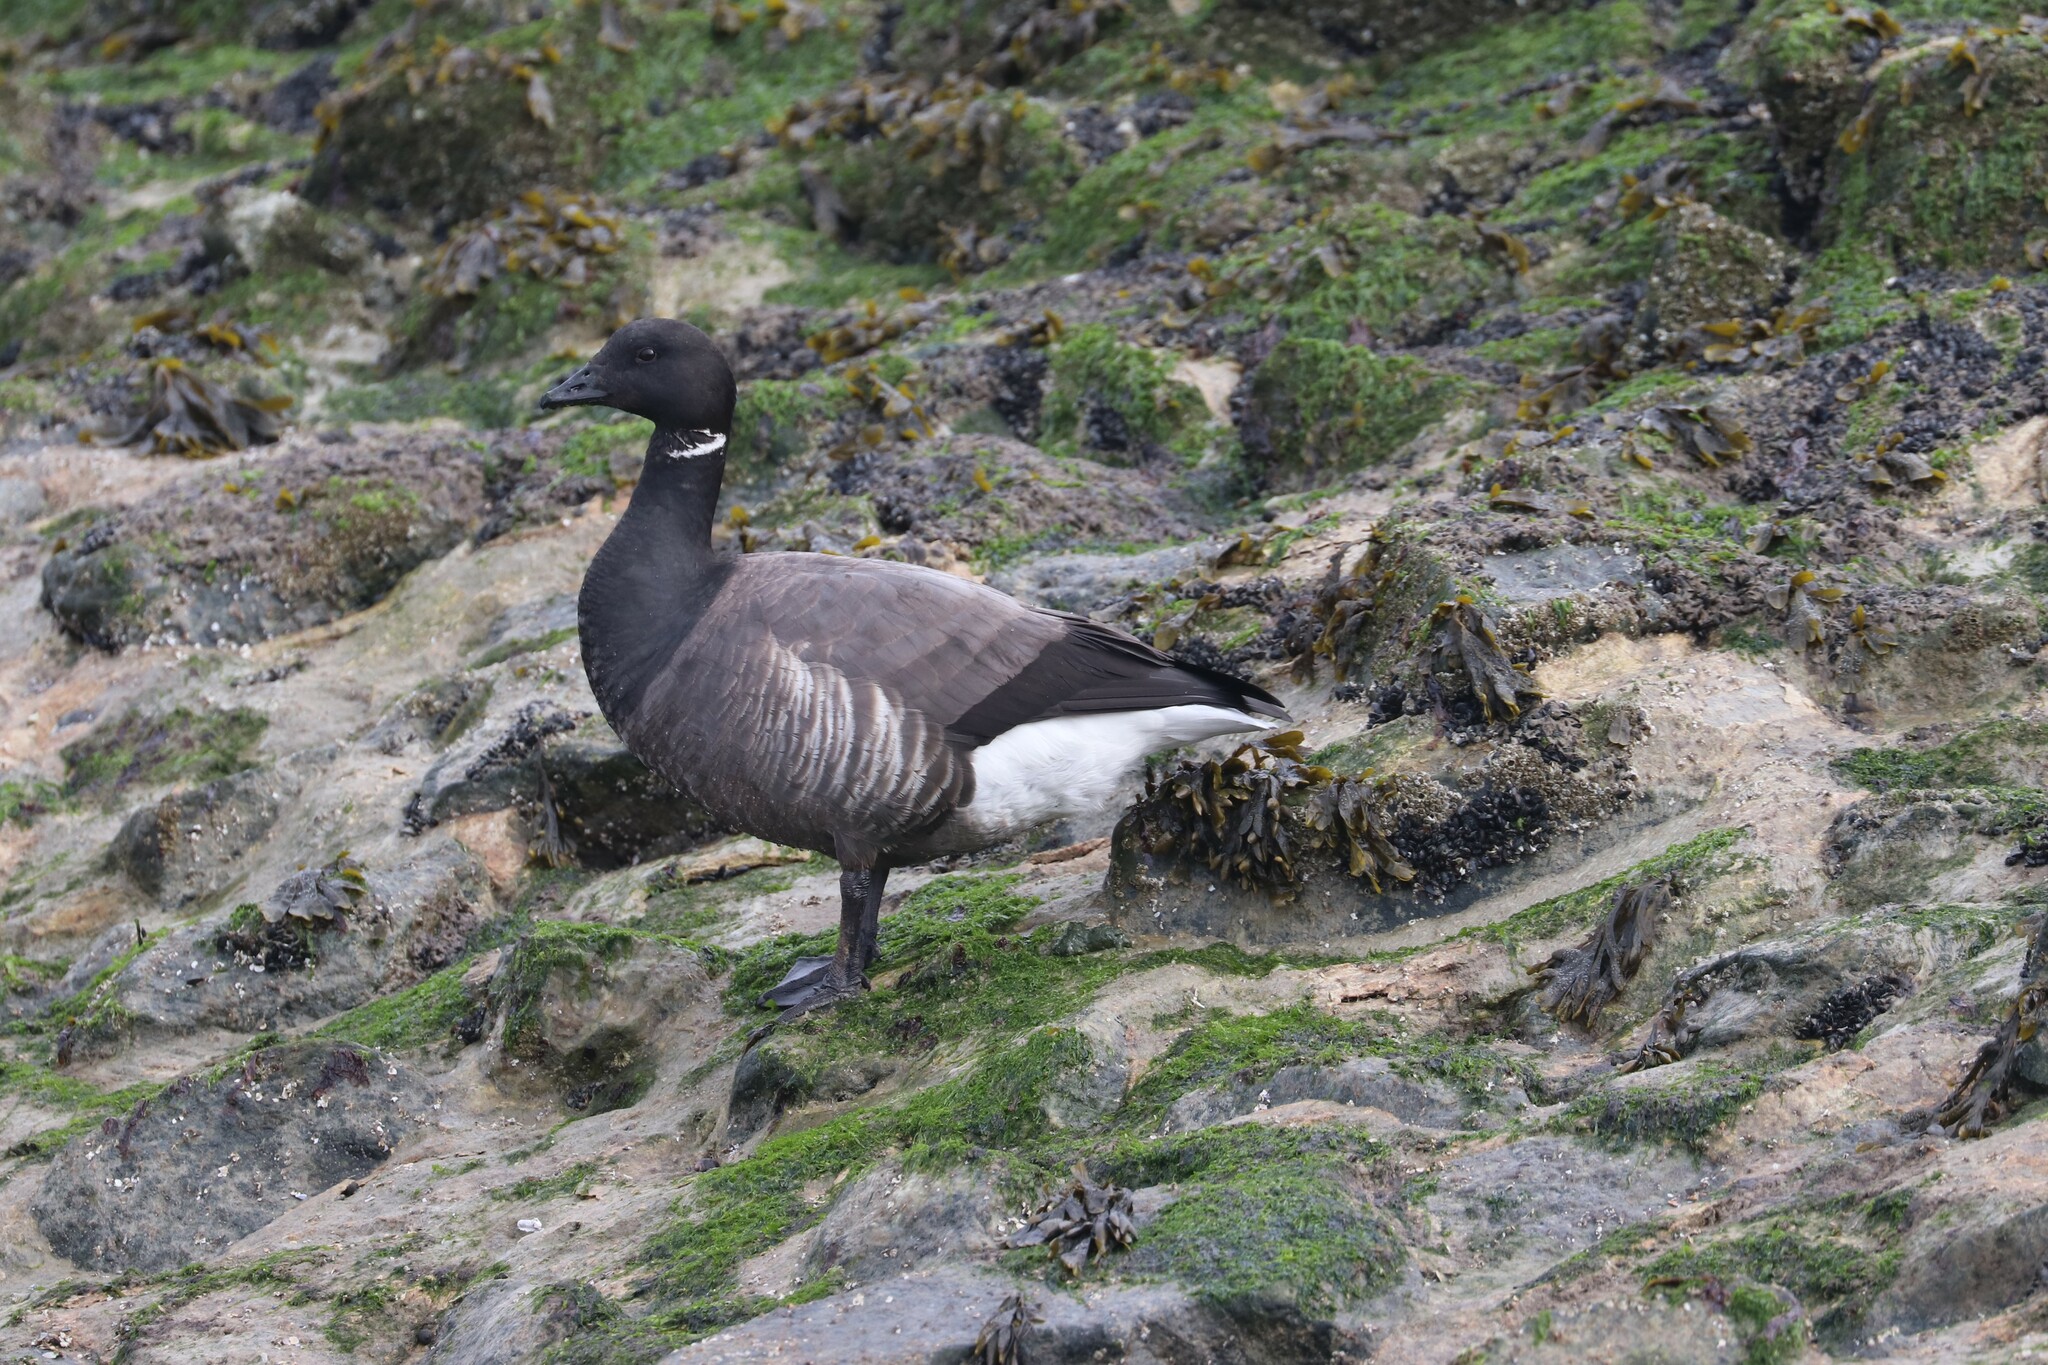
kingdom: Animalia
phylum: Chordata
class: Aves
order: Anseriformes
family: Anatidae
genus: Branta
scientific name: Branta bernicla
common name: Brant goose
